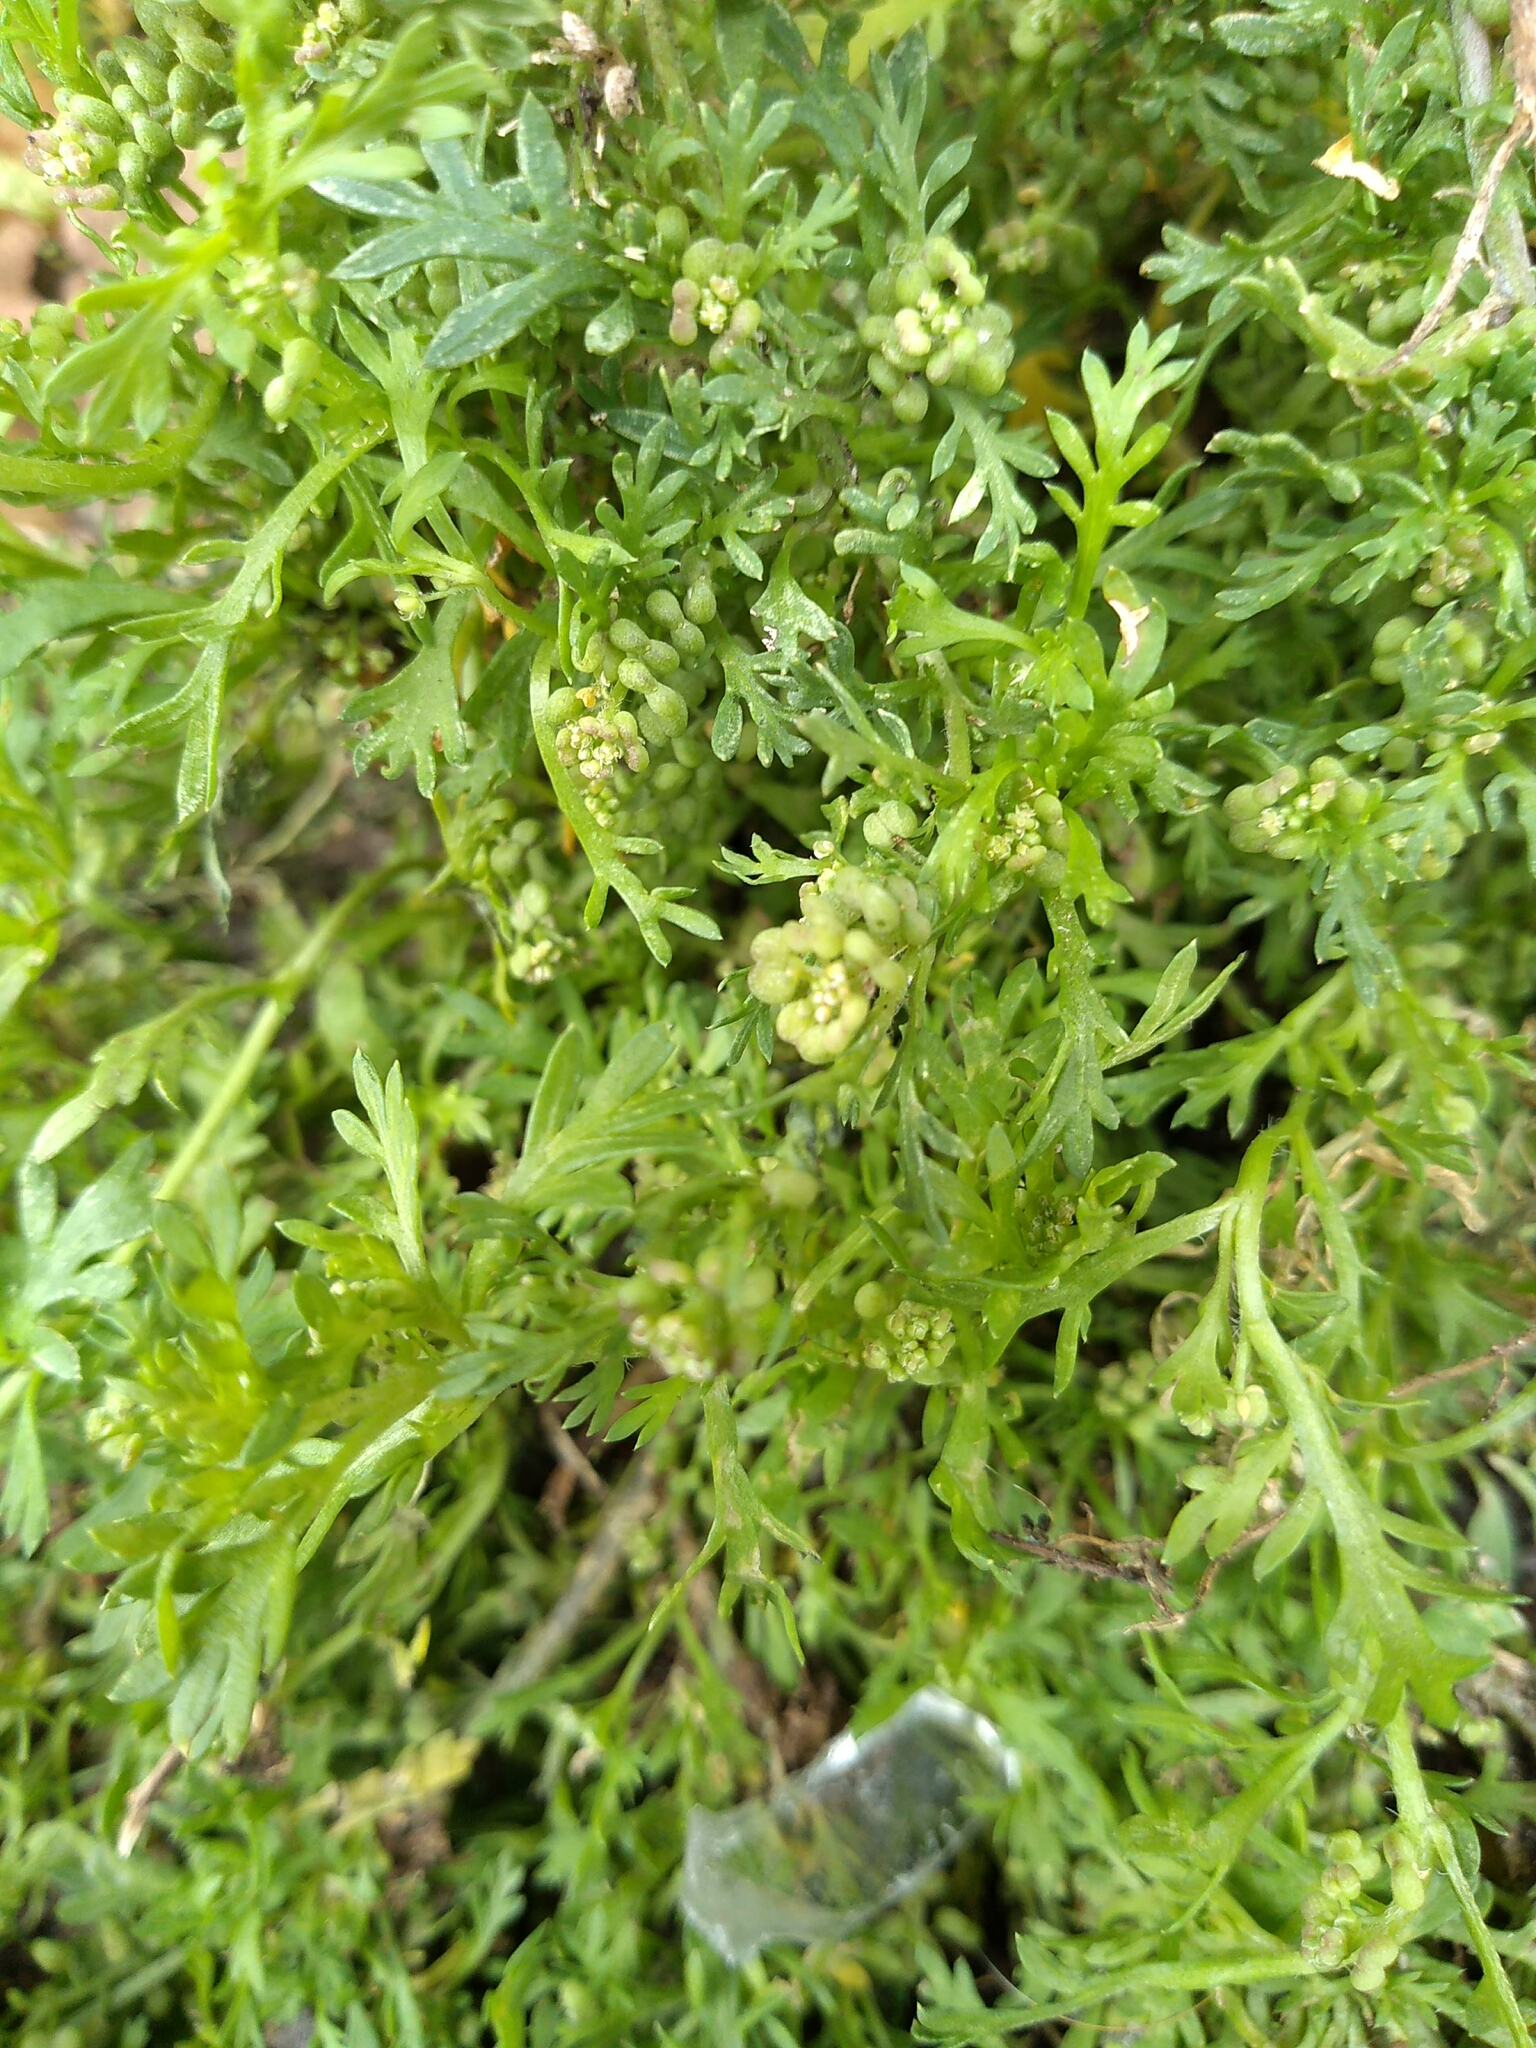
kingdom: Plantae
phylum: Tracheophyta
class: Magnoliopsida
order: Brassicales
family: Brassicaceae
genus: Lepidium
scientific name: Lepidium didymum
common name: Lesser swinecress
